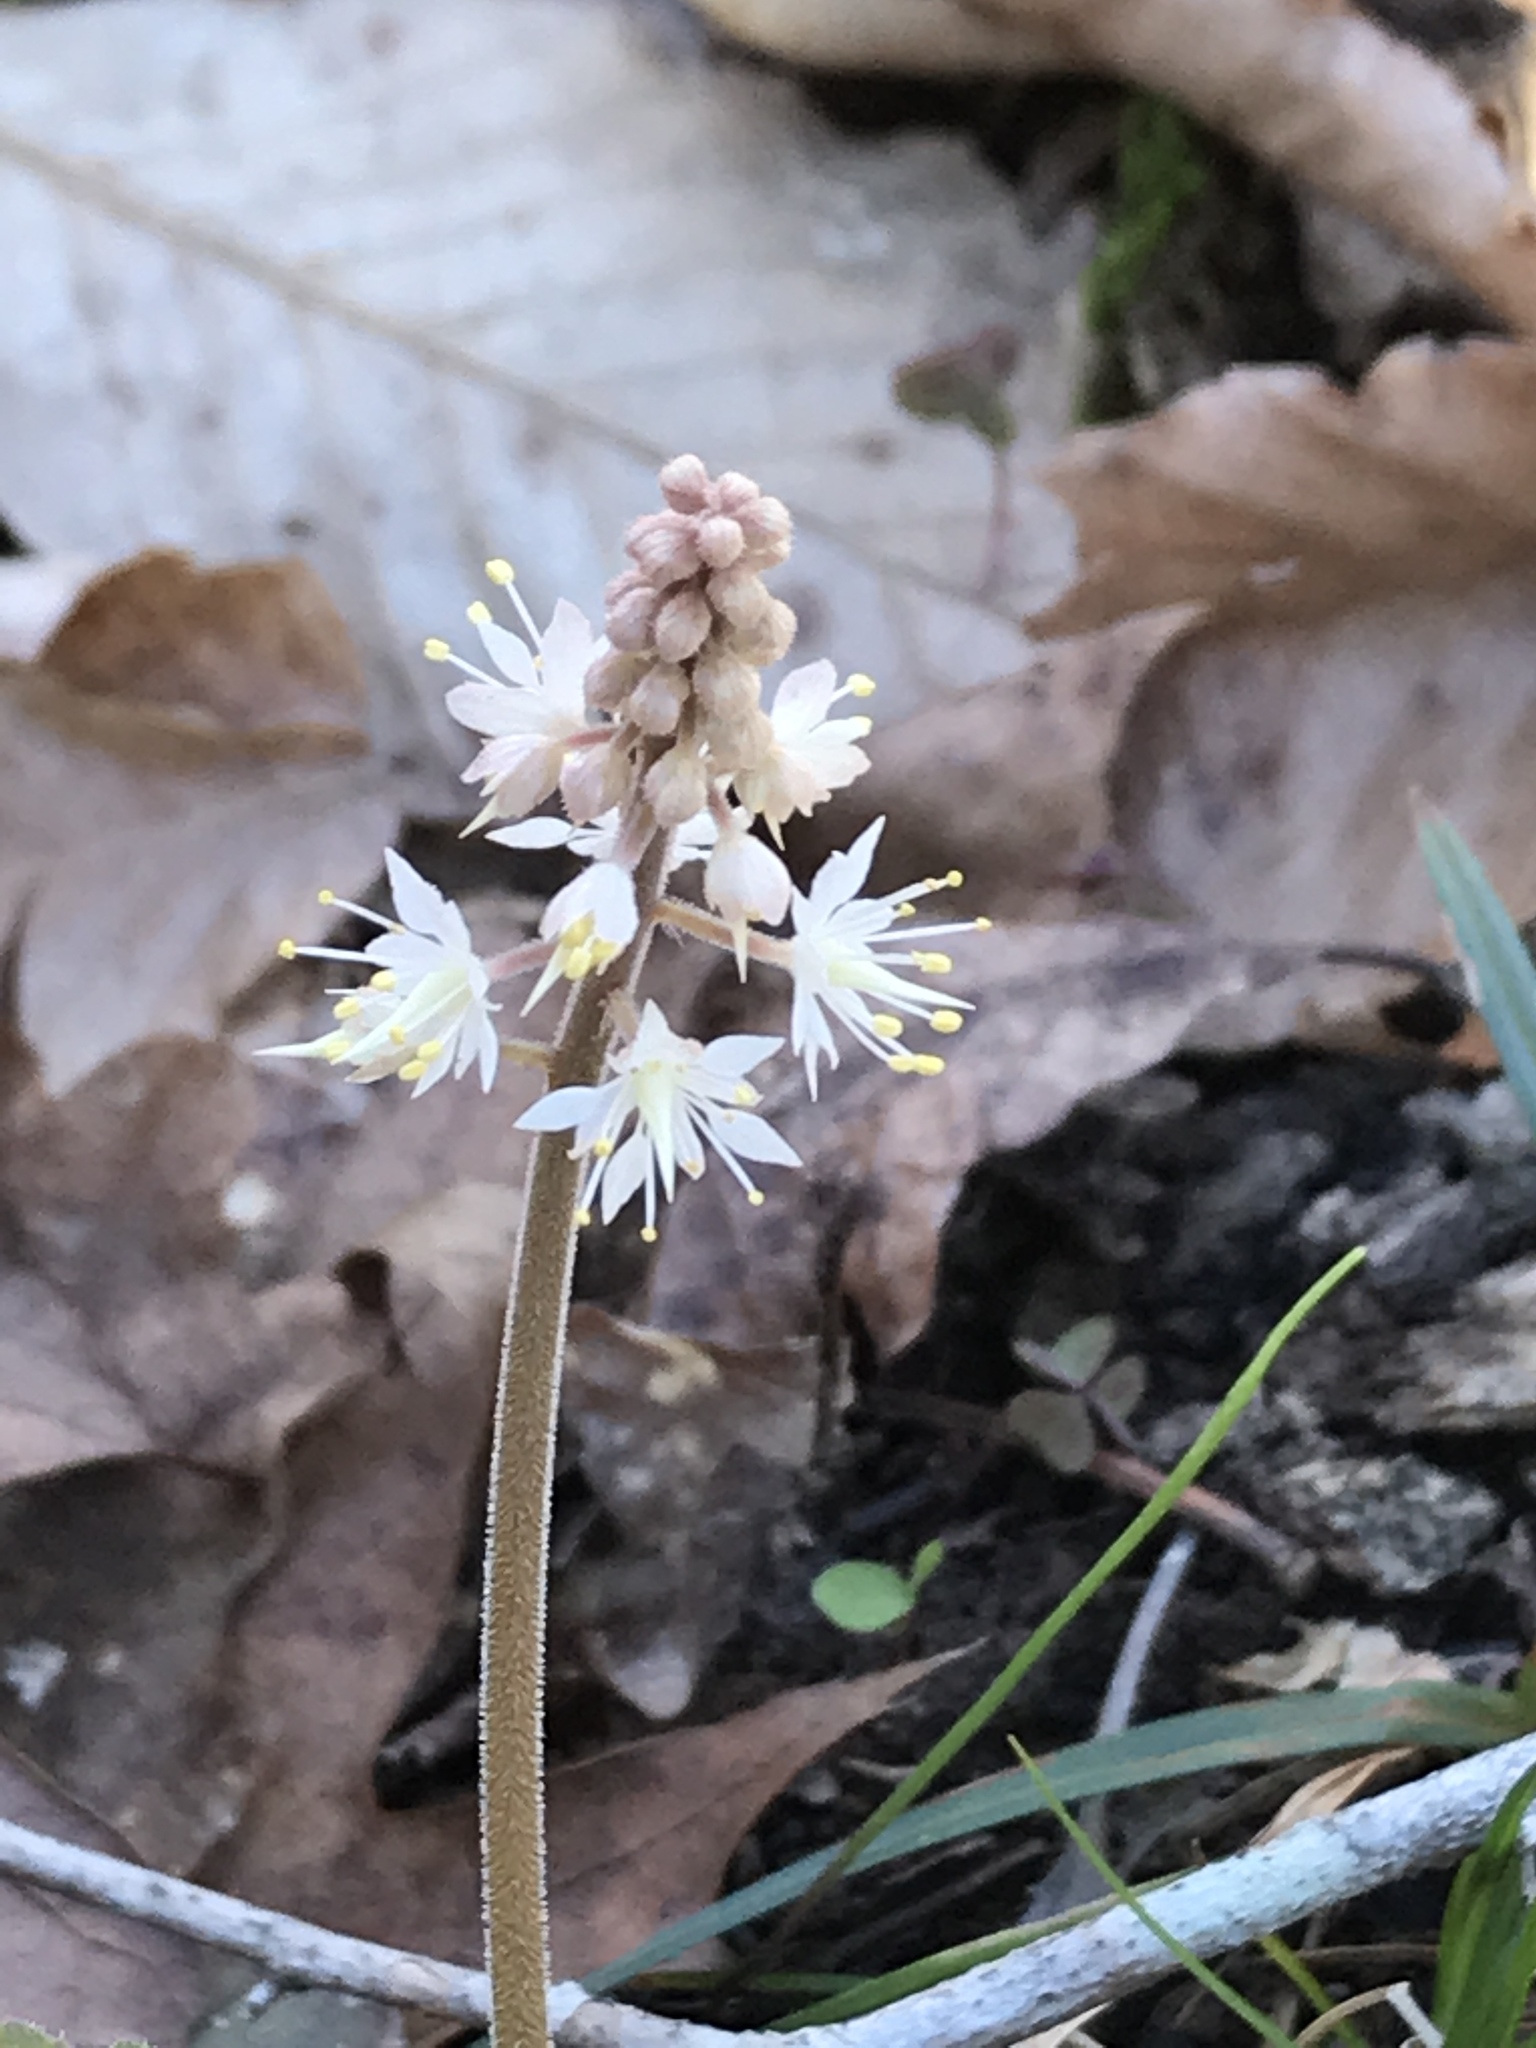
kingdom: Plantae
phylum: Tracheophyta
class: Magnoliopsida
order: Saxifragales
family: Saxifragaceae
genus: Tiarella
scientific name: Tiarella cordifolia
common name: Foamflower
